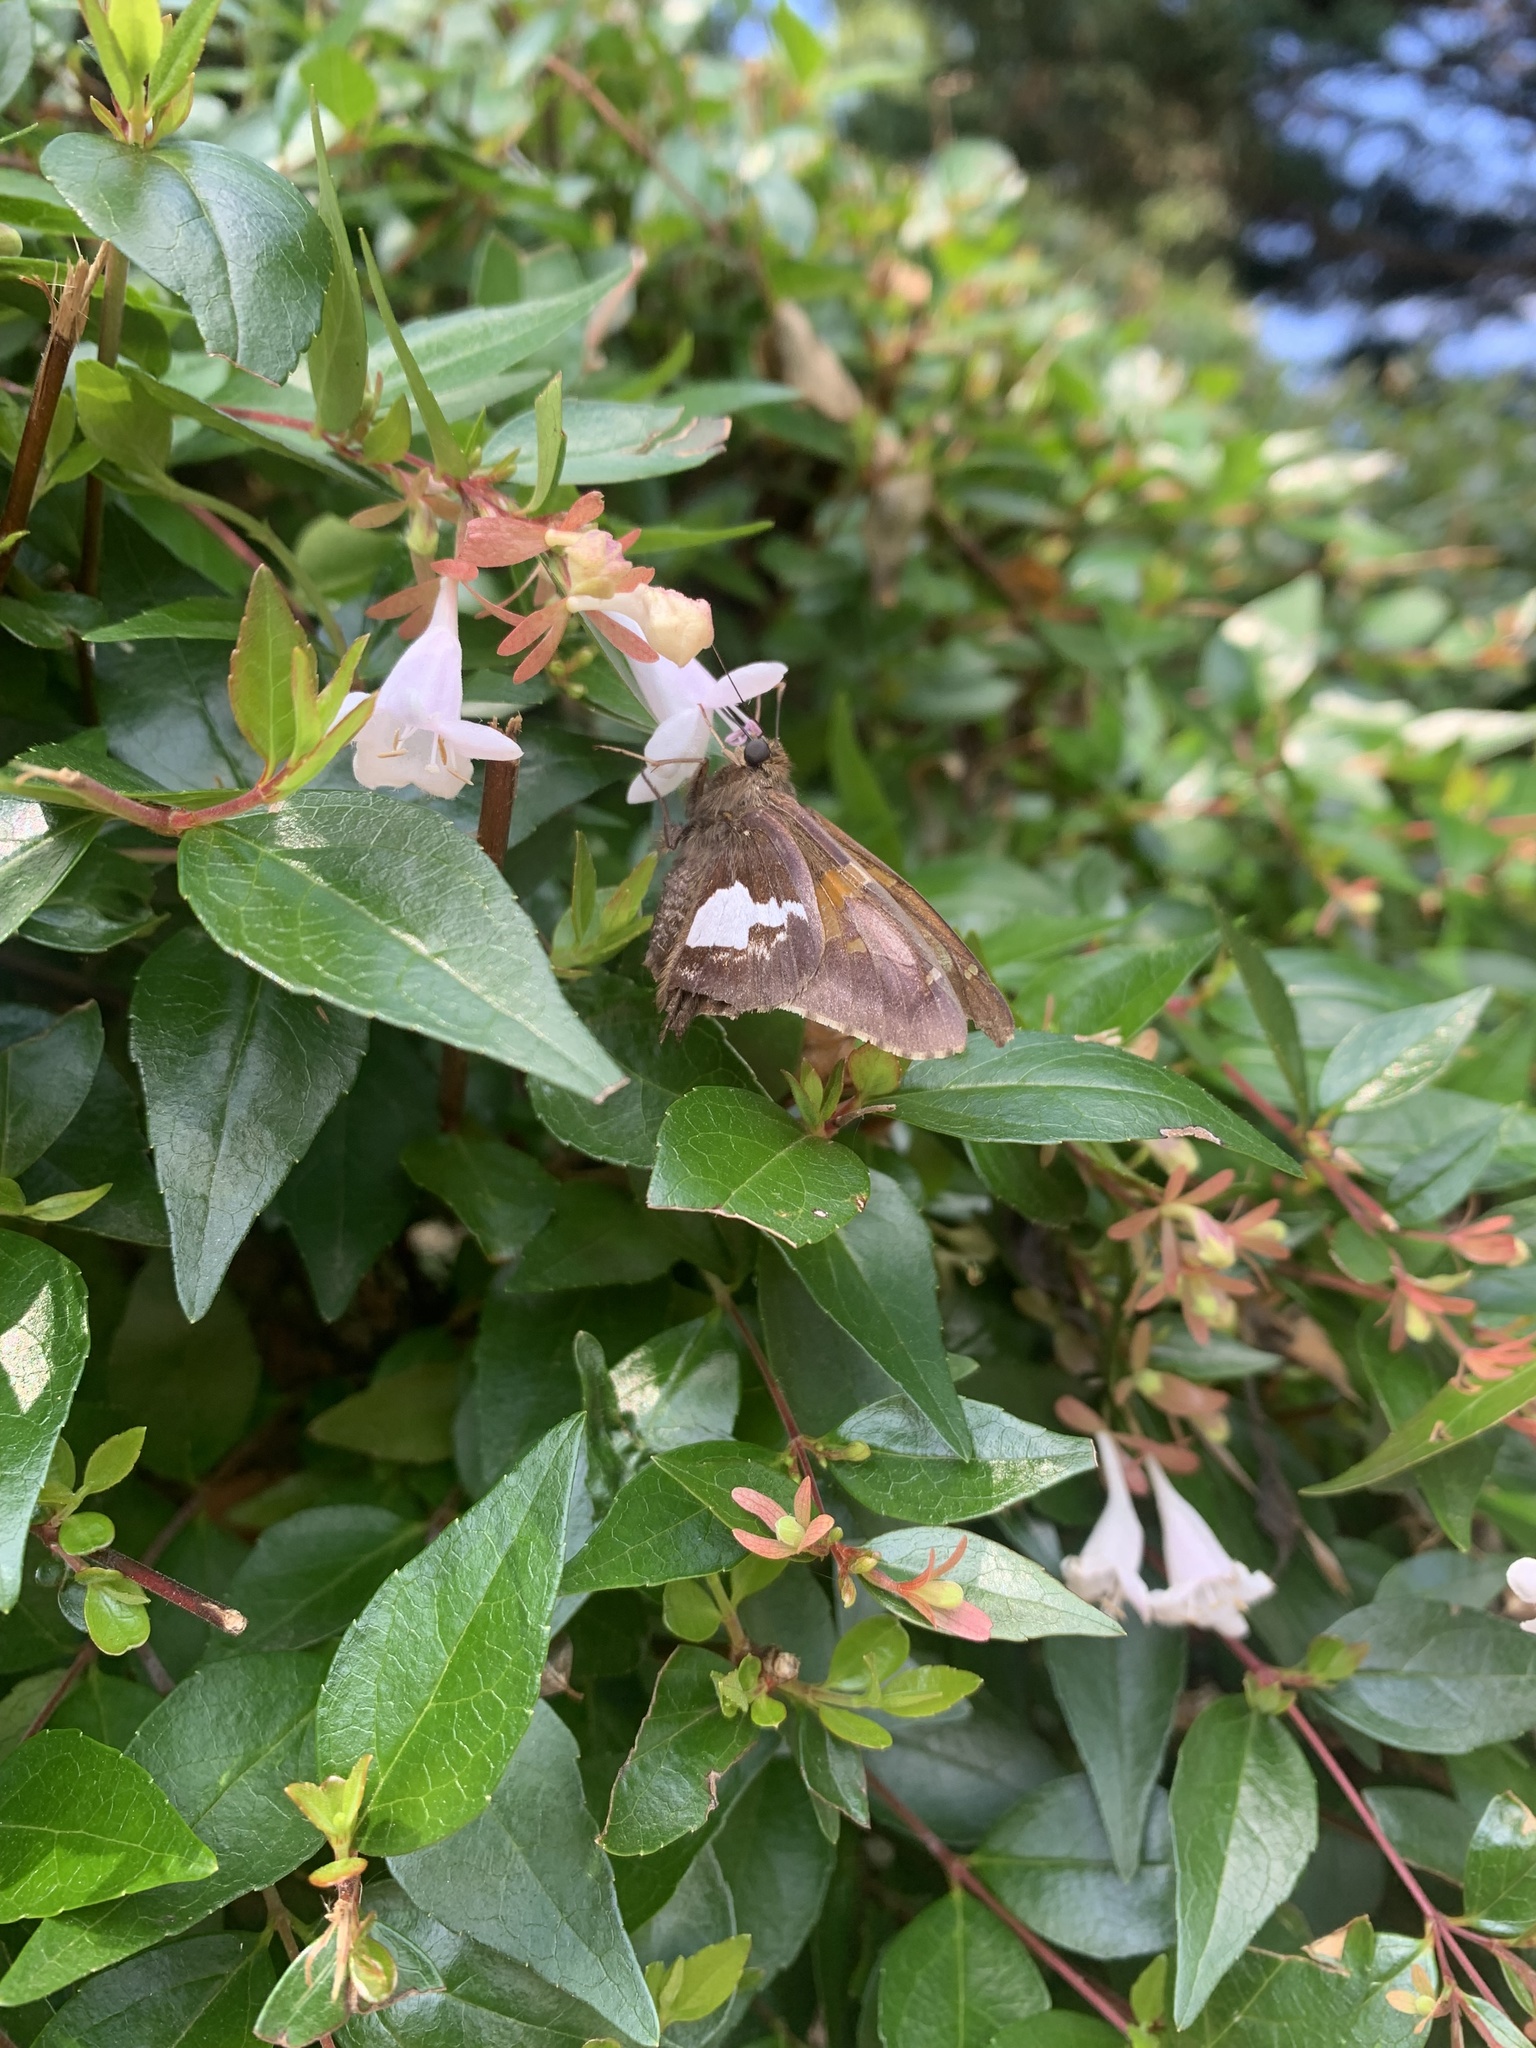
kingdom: Animalia
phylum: Arthropoda
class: Insecta
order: Lepidoptera
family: Hesperiidae
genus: Epargyreus
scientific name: Epargyreus clarus
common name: Silver-spotted skipper
